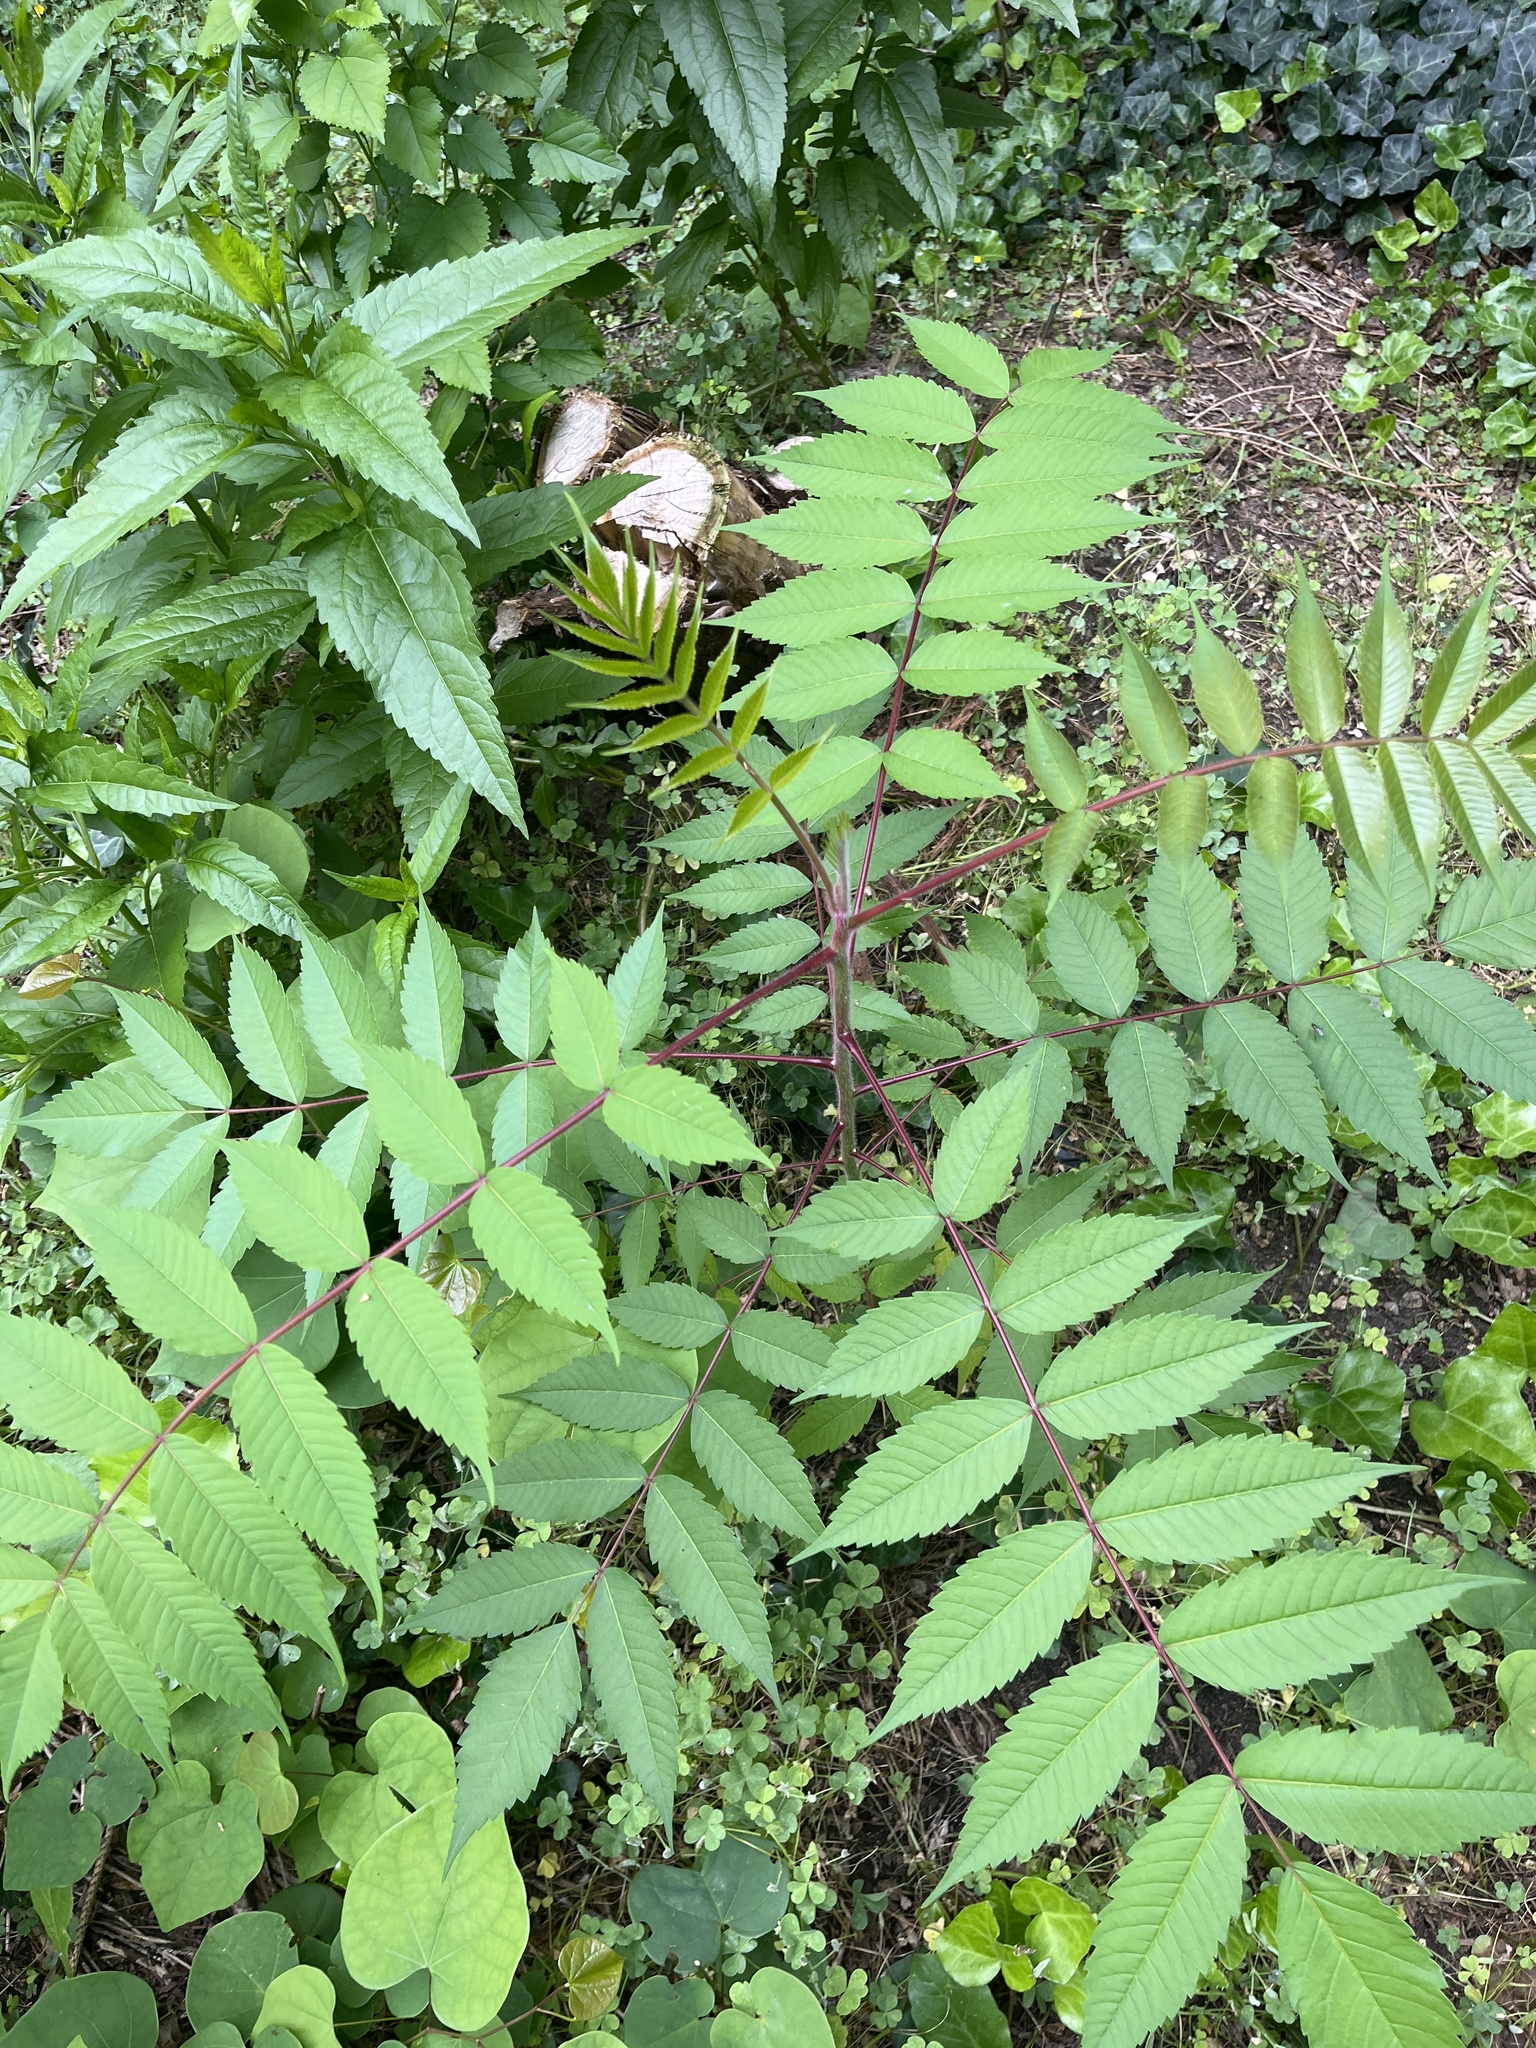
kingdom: Plantae
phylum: Tracheophyta
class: Magnoliopsida
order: Sapindales
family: Anacardiaceae
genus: Rhus
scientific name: Rhus typhina
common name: Staghorn sumac
